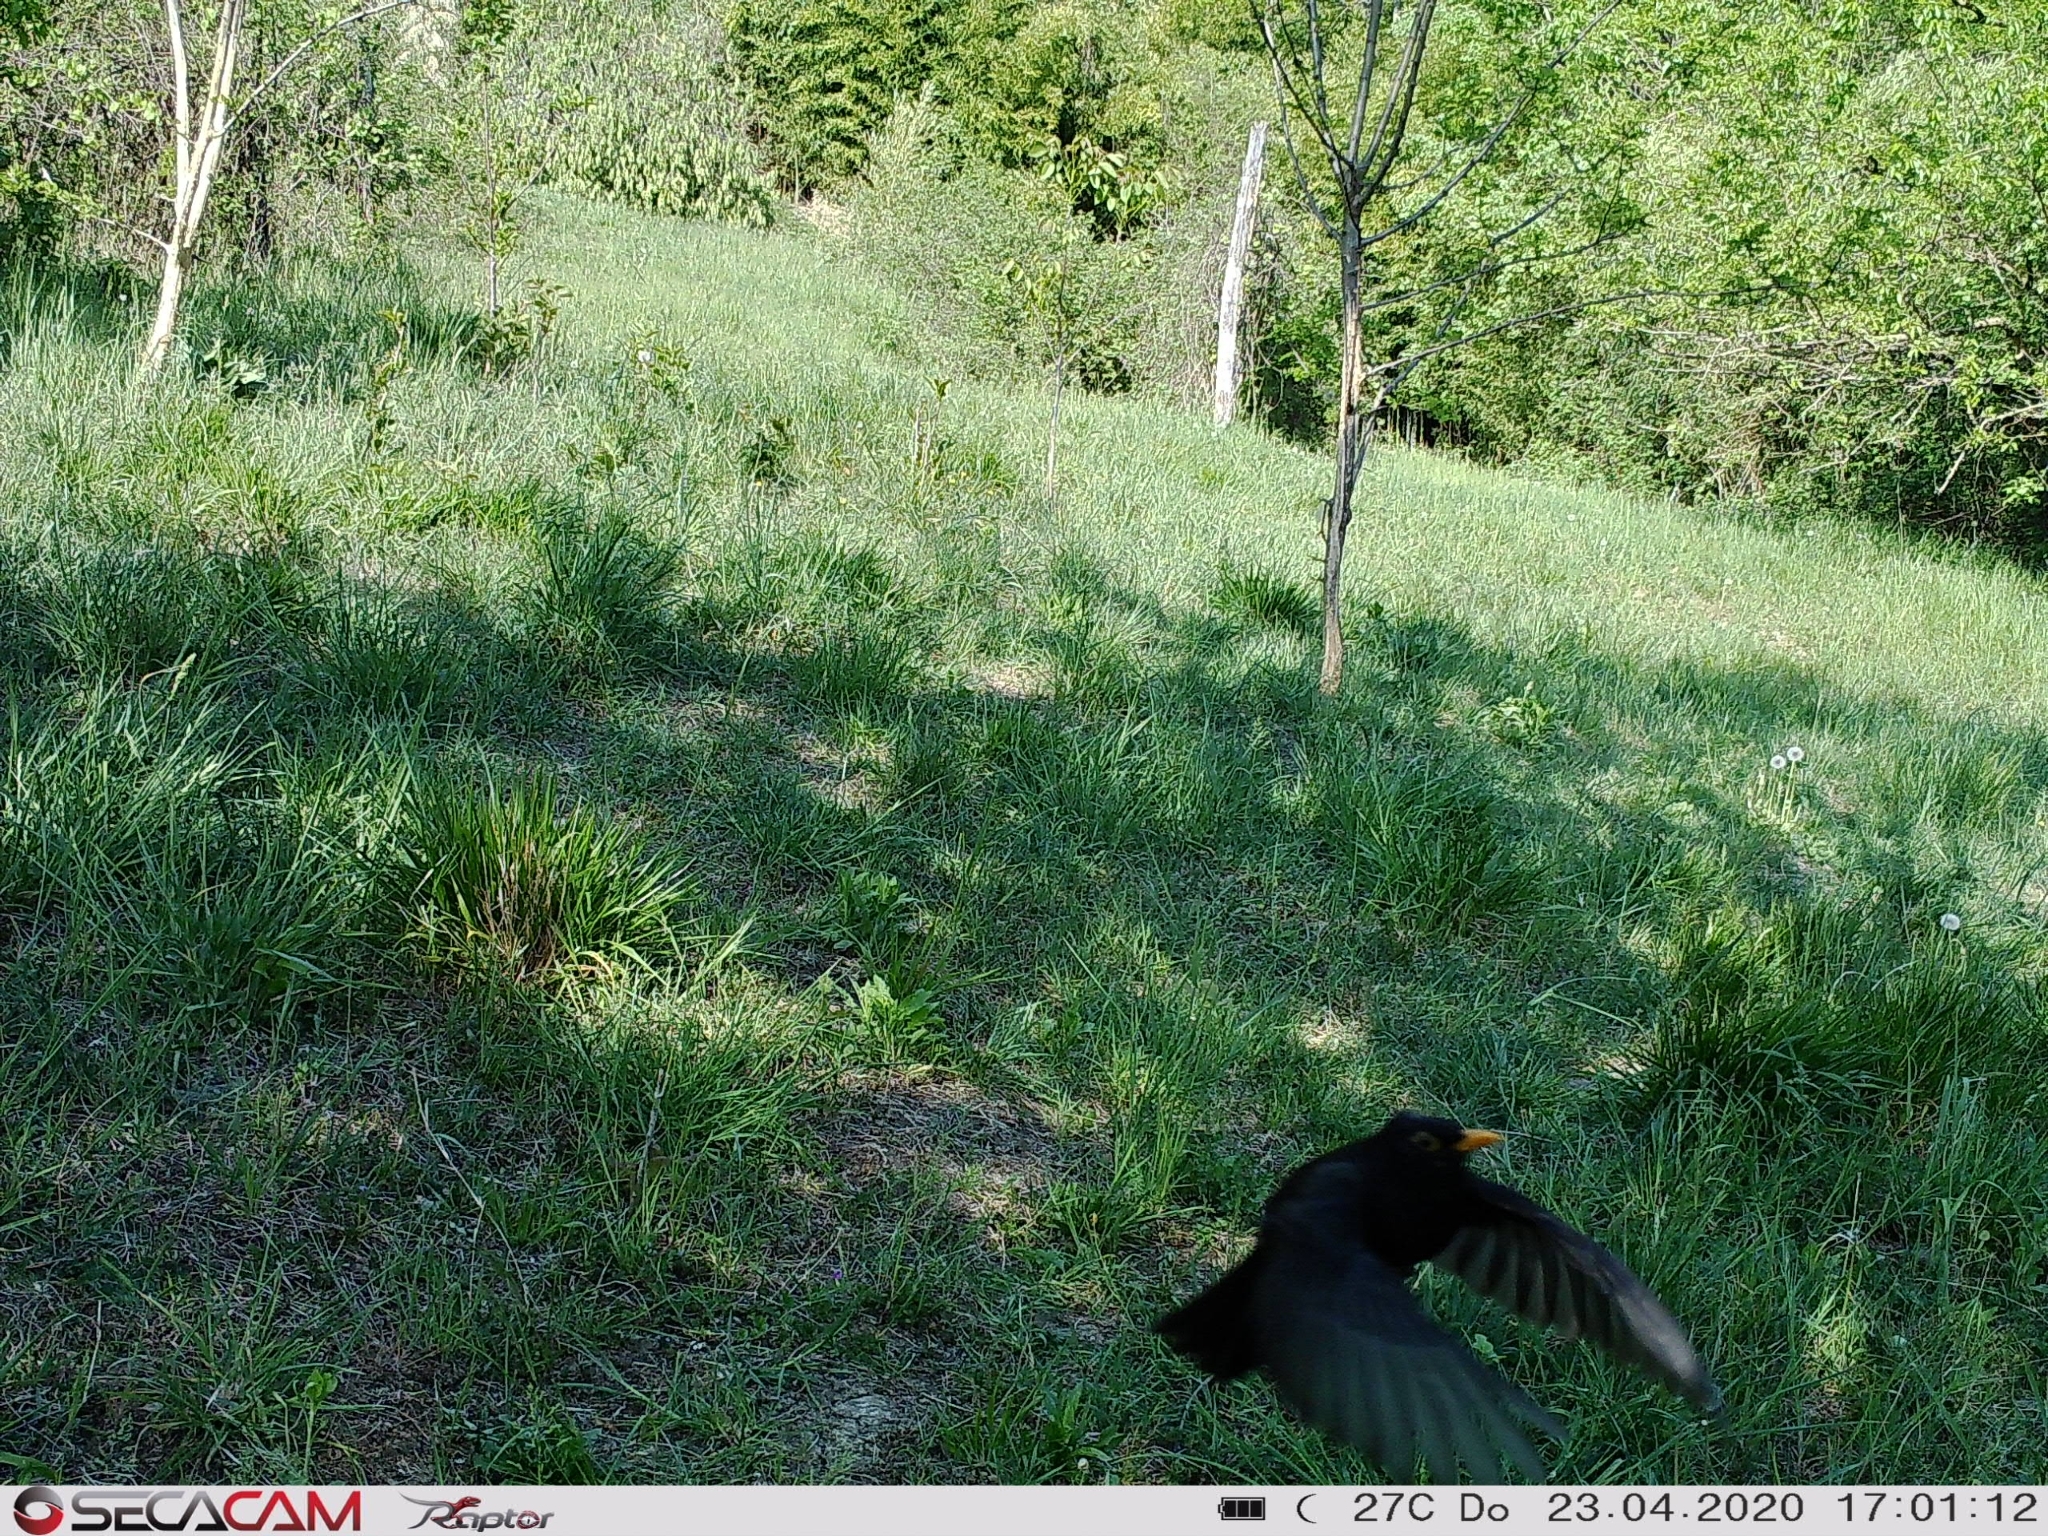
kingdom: Animalia
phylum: Chordata
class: Aves
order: Passeriformes
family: Turdidae
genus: Turdus
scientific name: Turdus merula
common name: Common blackbird
